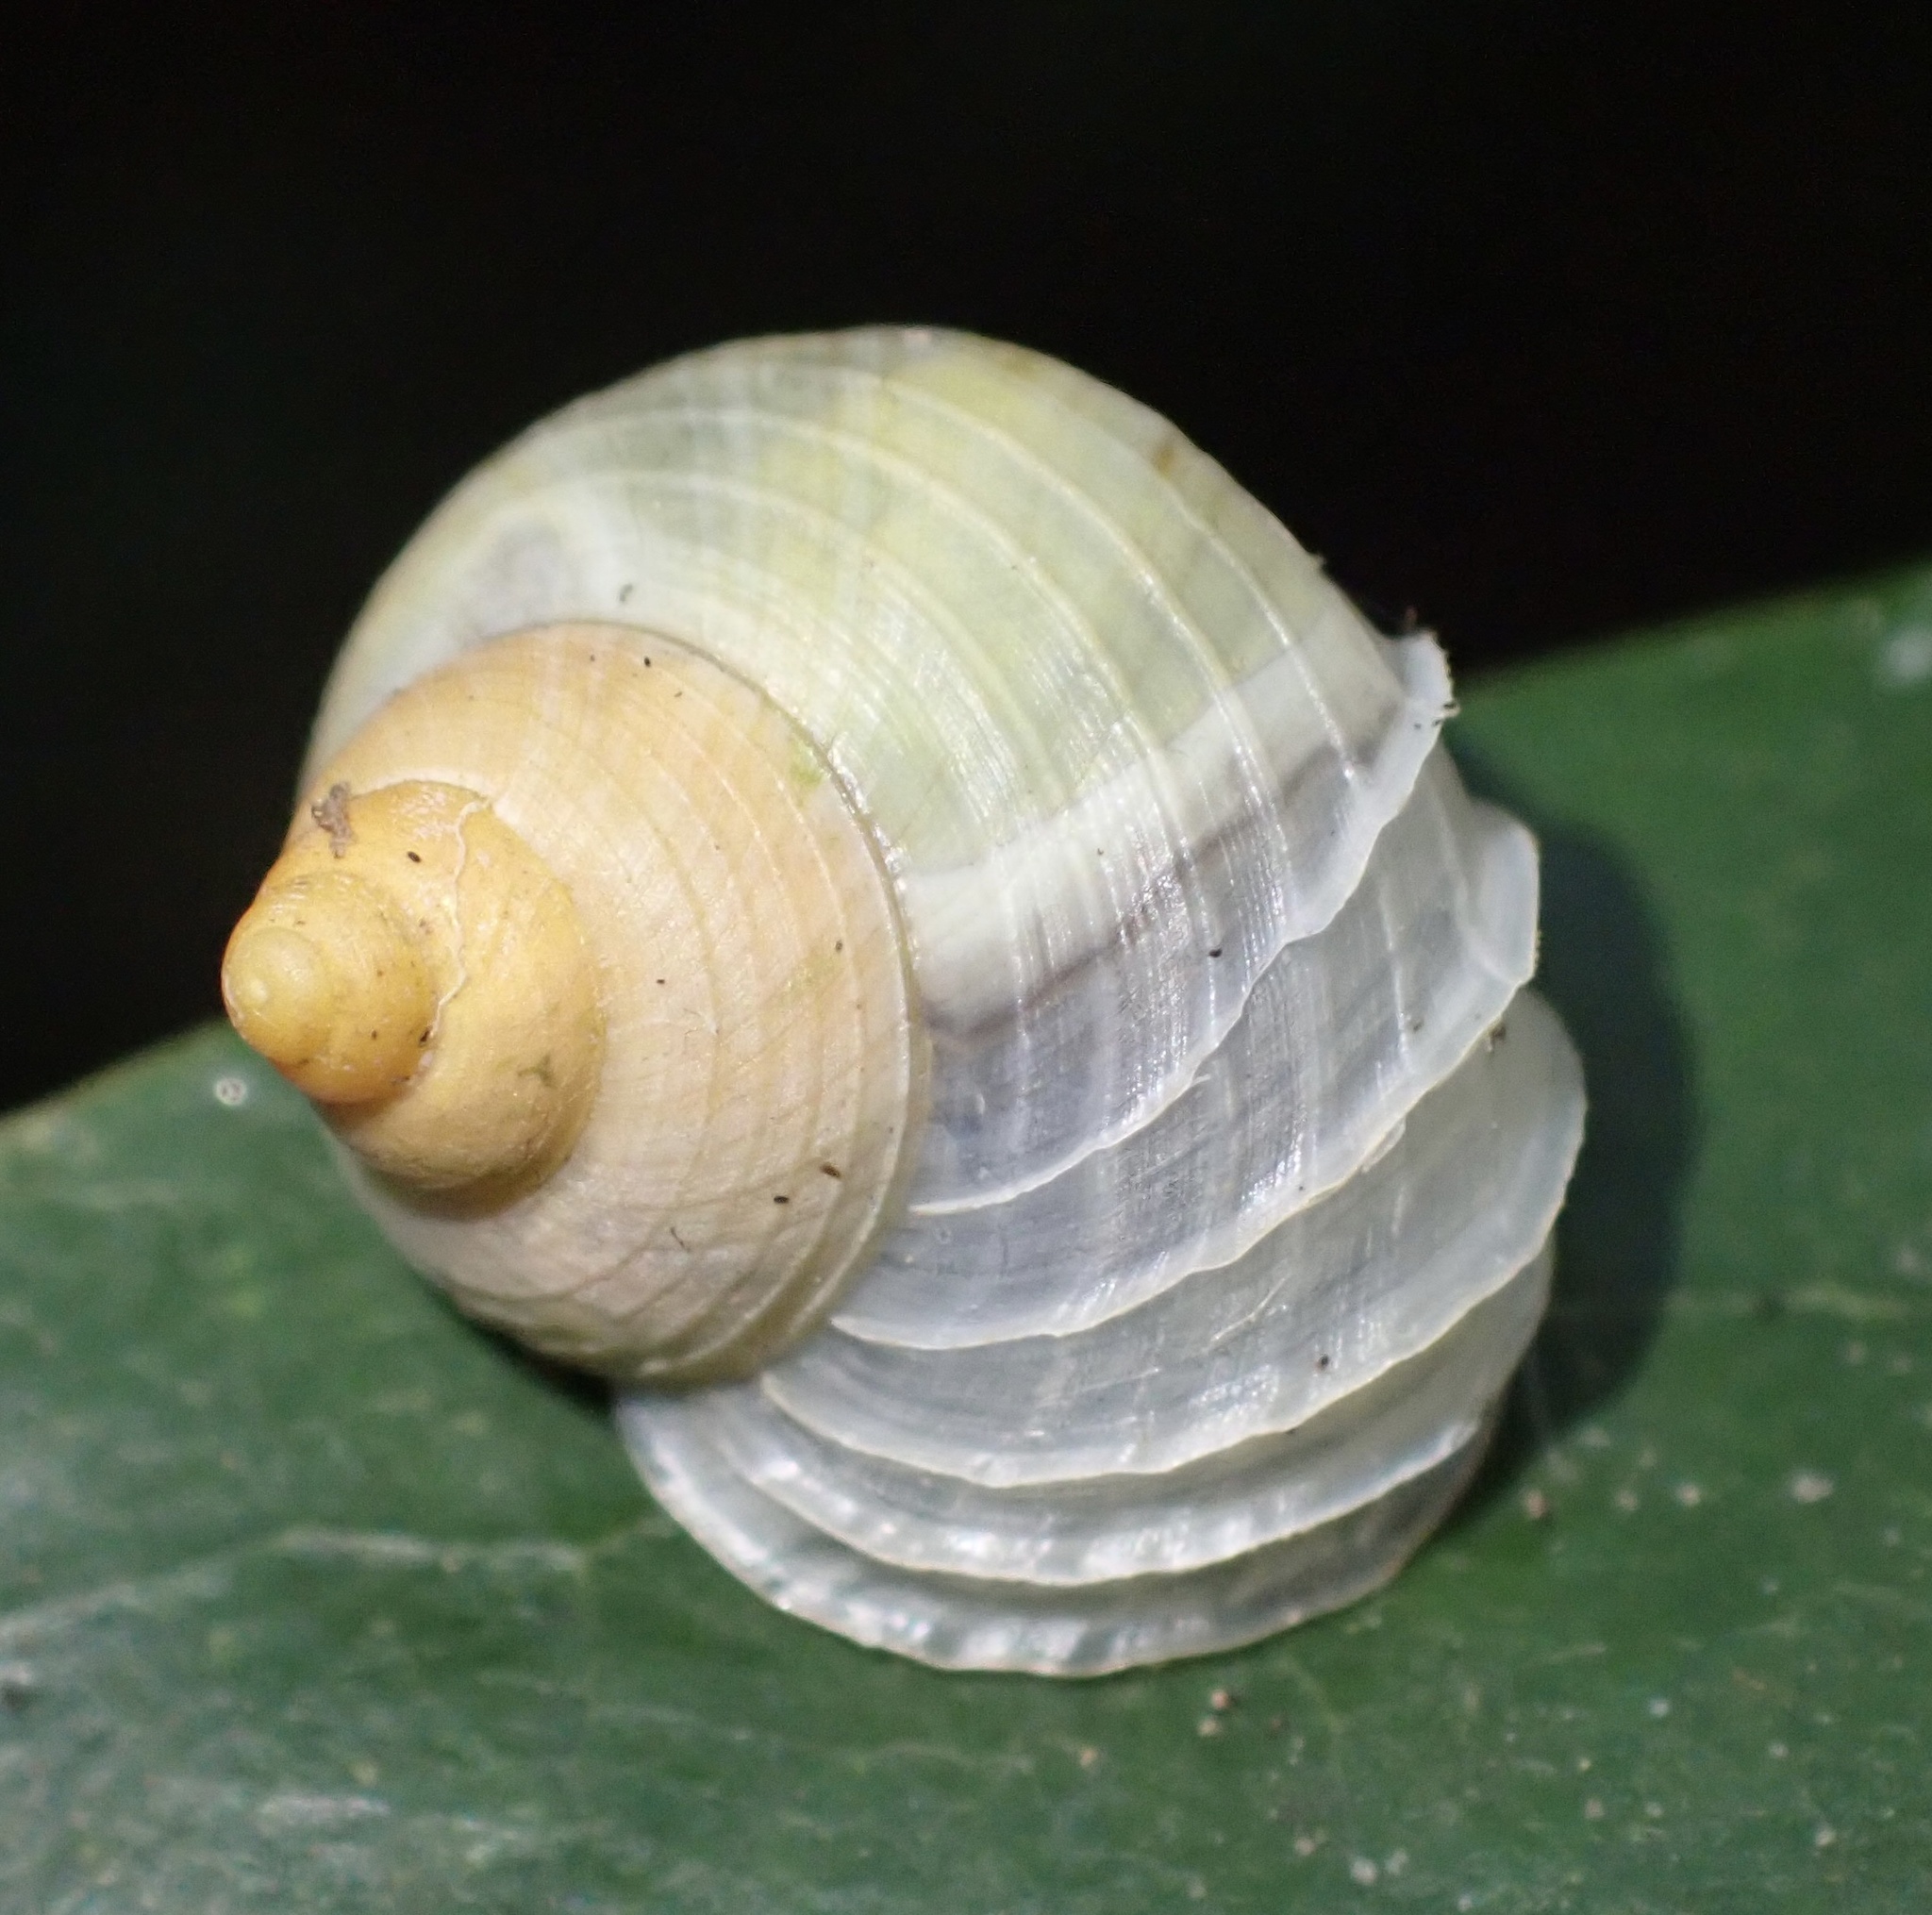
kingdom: Animalia
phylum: Mollusca
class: Gastropoda
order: Architaenioglossa
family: Cyclophoridae
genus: Leptopoma
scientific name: Leptopoma lamellatum
